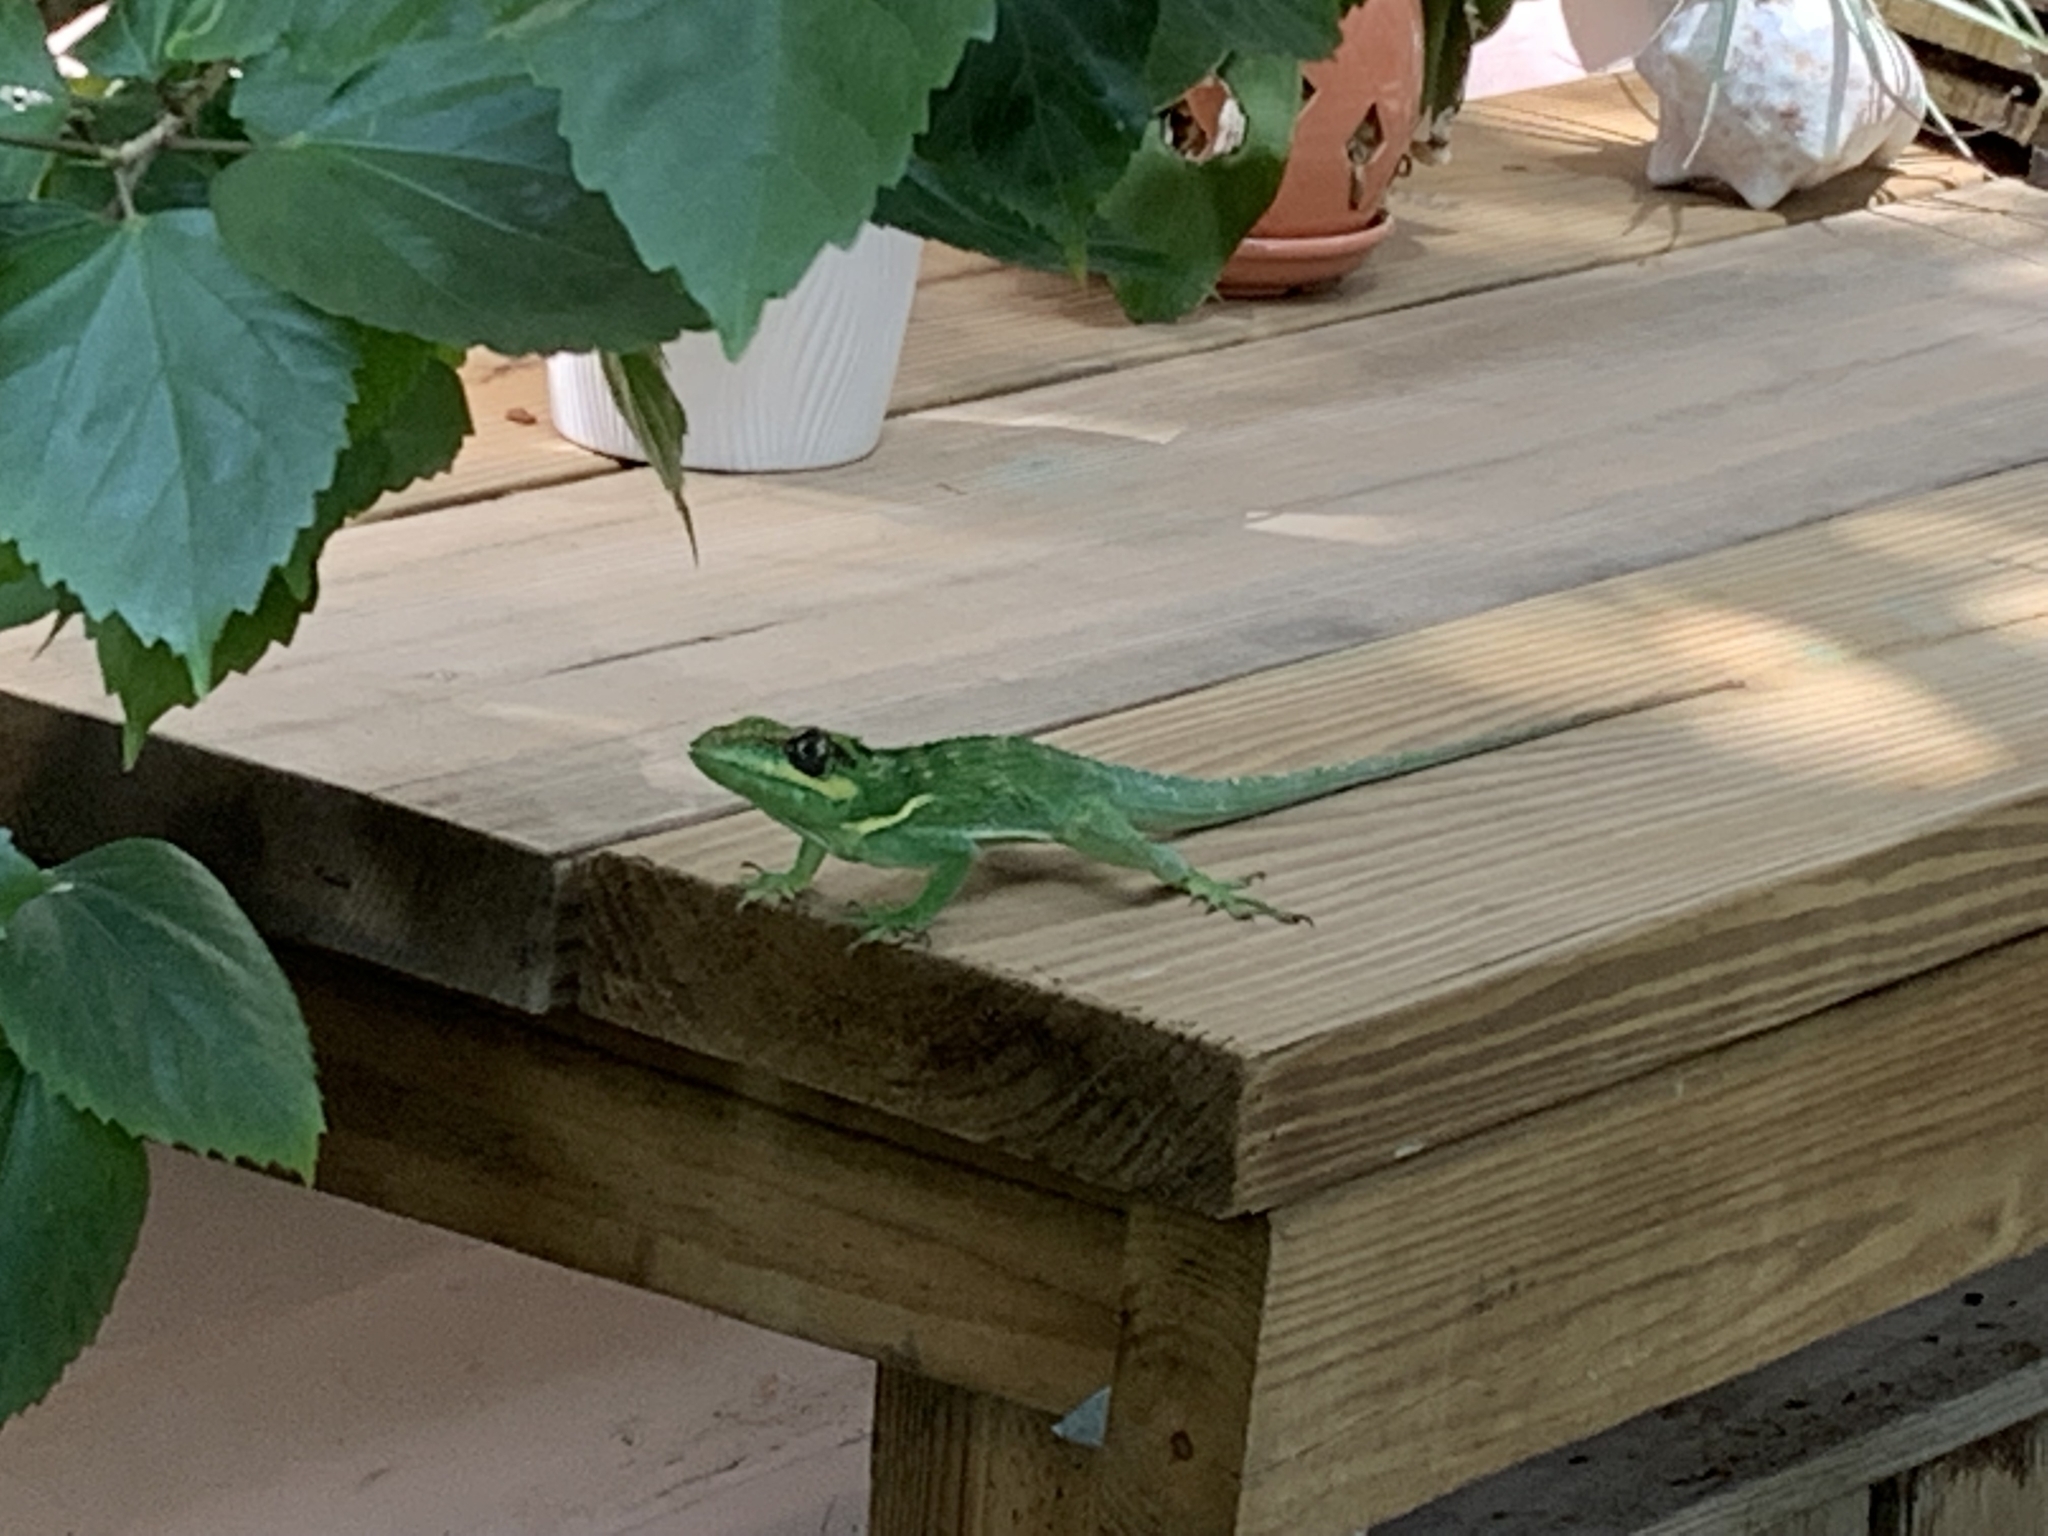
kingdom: Animalia
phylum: Chordata
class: Squamata
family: Dactyloidae
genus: Anolis
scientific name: Anolis equestris
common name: Knight anole
